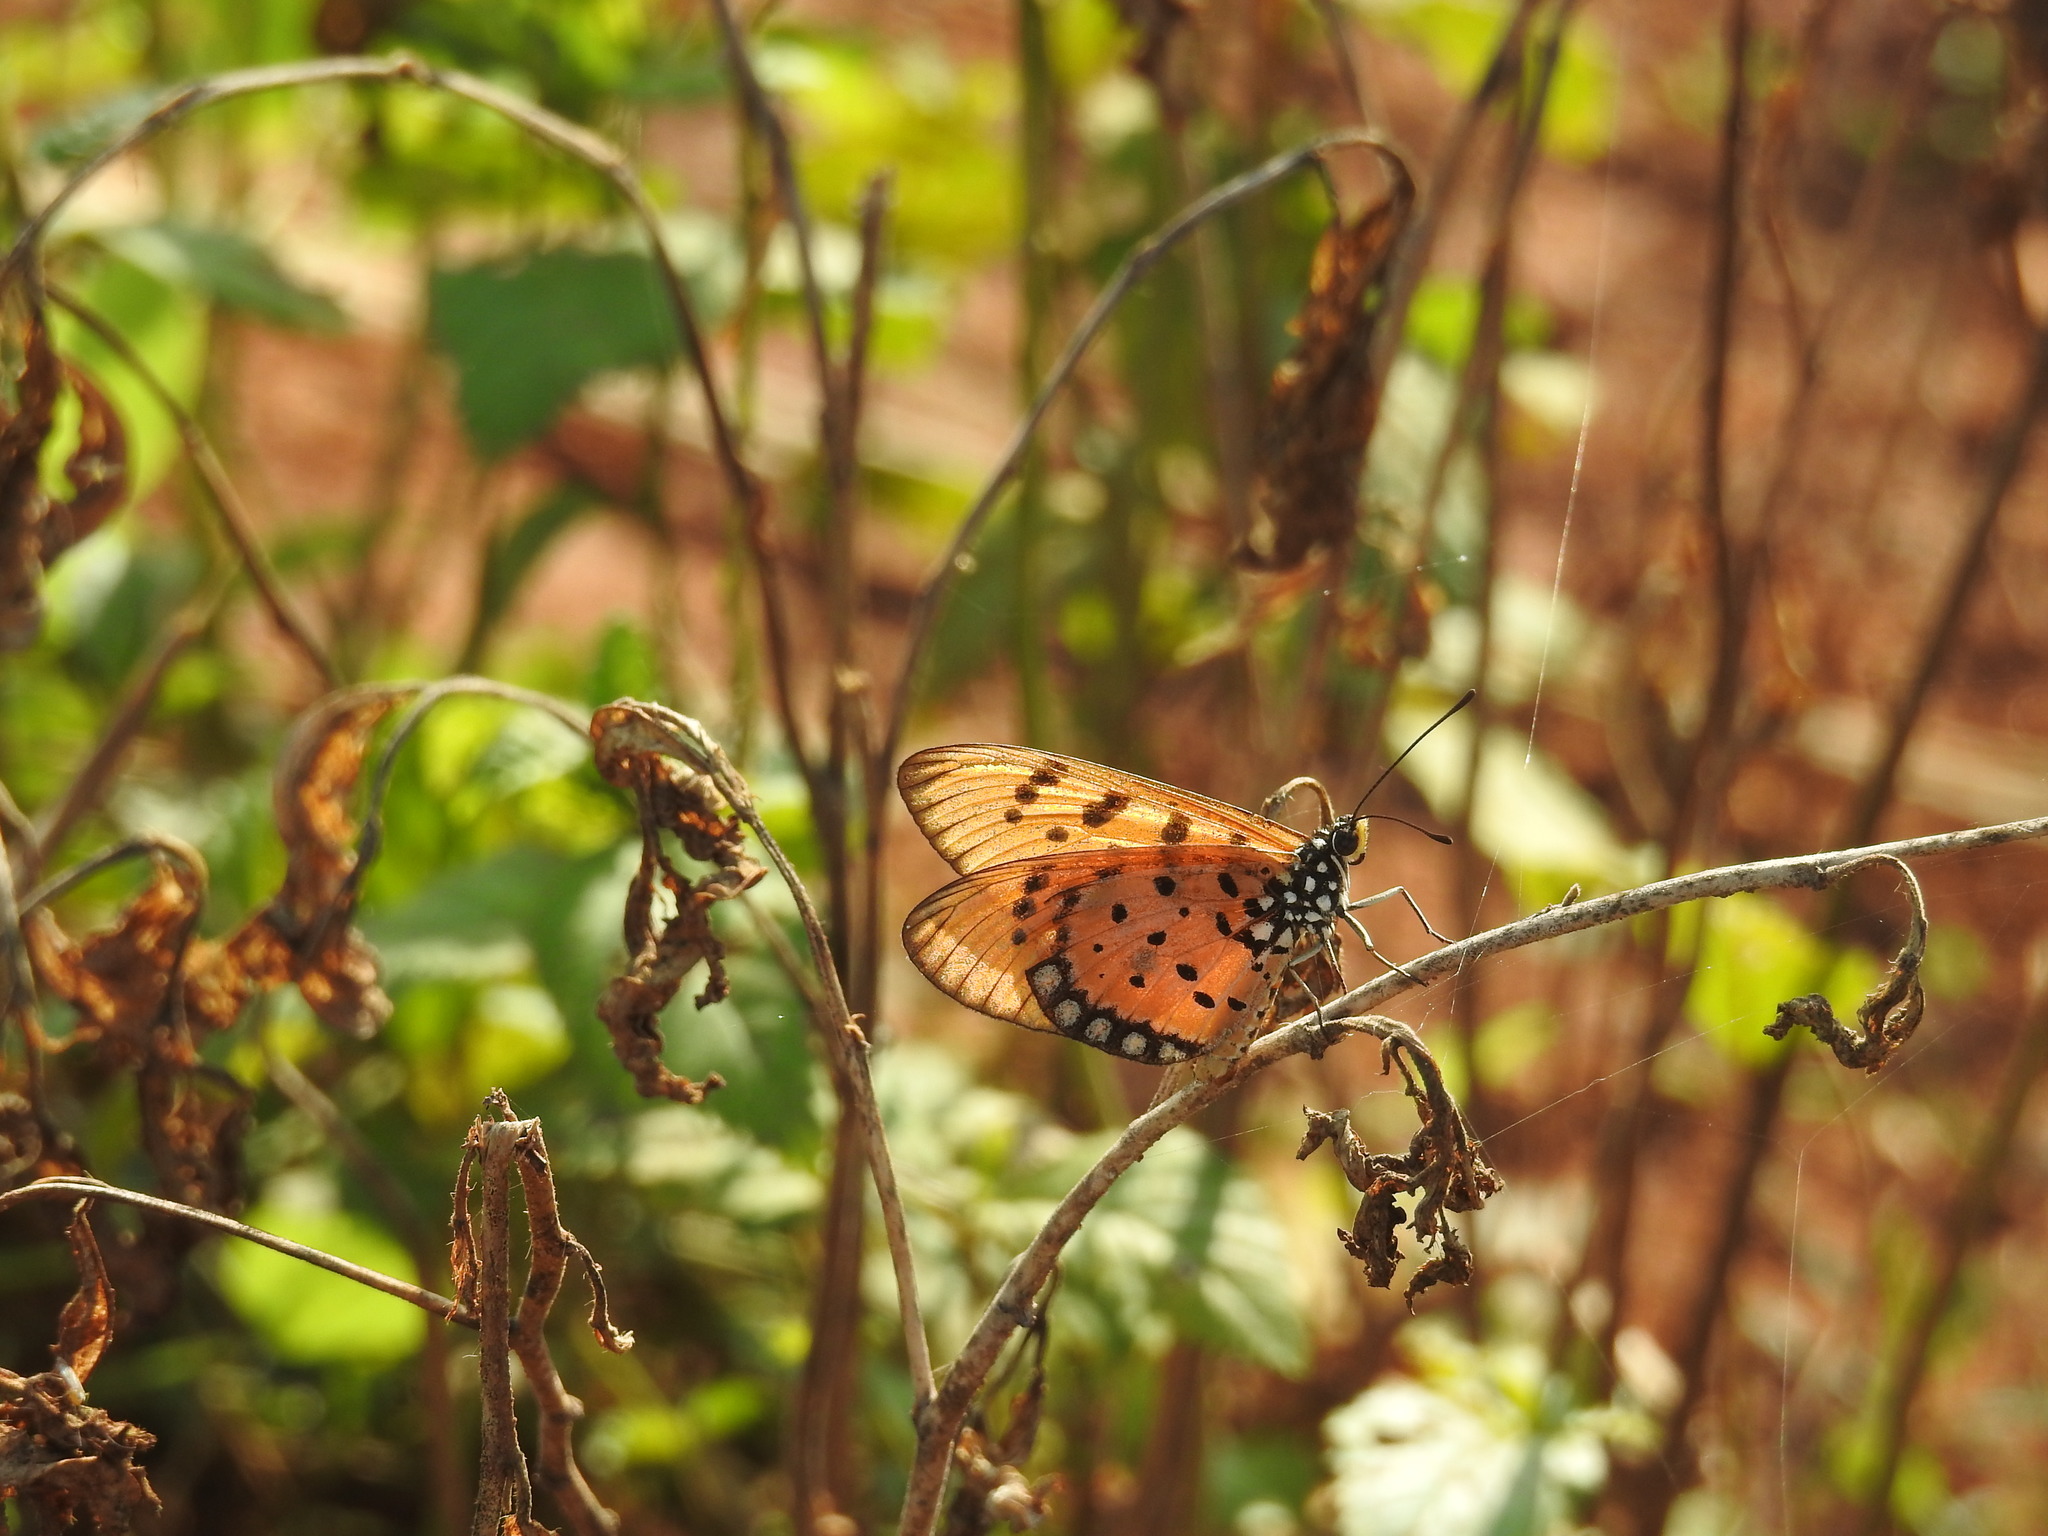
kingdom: Animalia
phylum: Arthropoda
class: Insecta
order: Lepidoptera
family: Nymphalidae
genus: Acraea
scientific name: Acraea terpsicore
